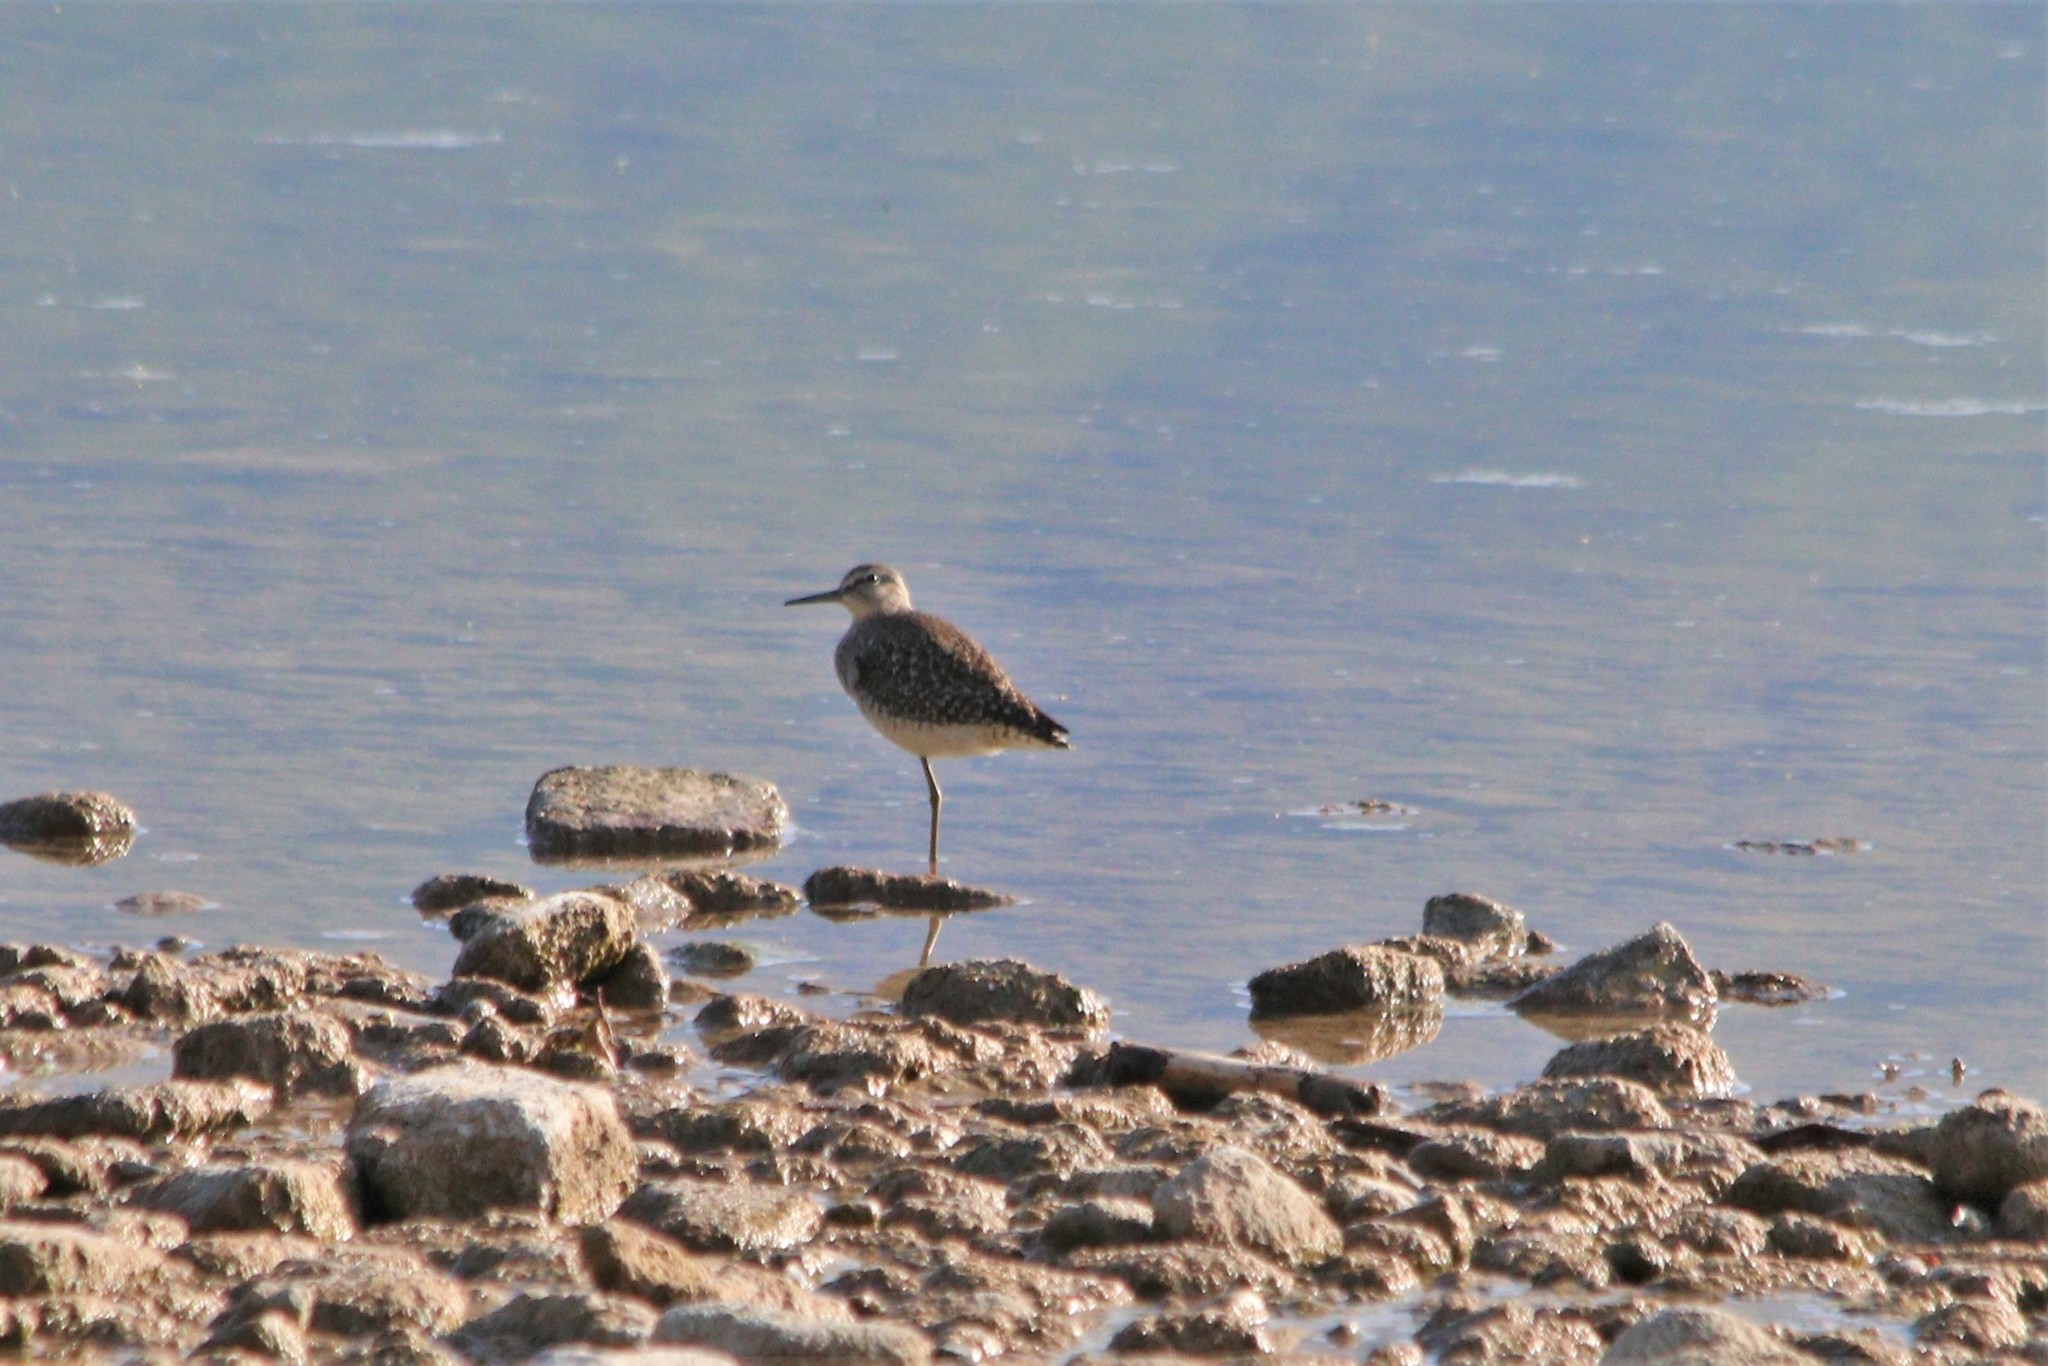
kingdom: Animalia
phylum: Chordata
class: Aves
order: Charadriiformes
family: Scolopacidae
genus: Tringa
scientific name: Tringa glareola
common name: Wood sandpiper
